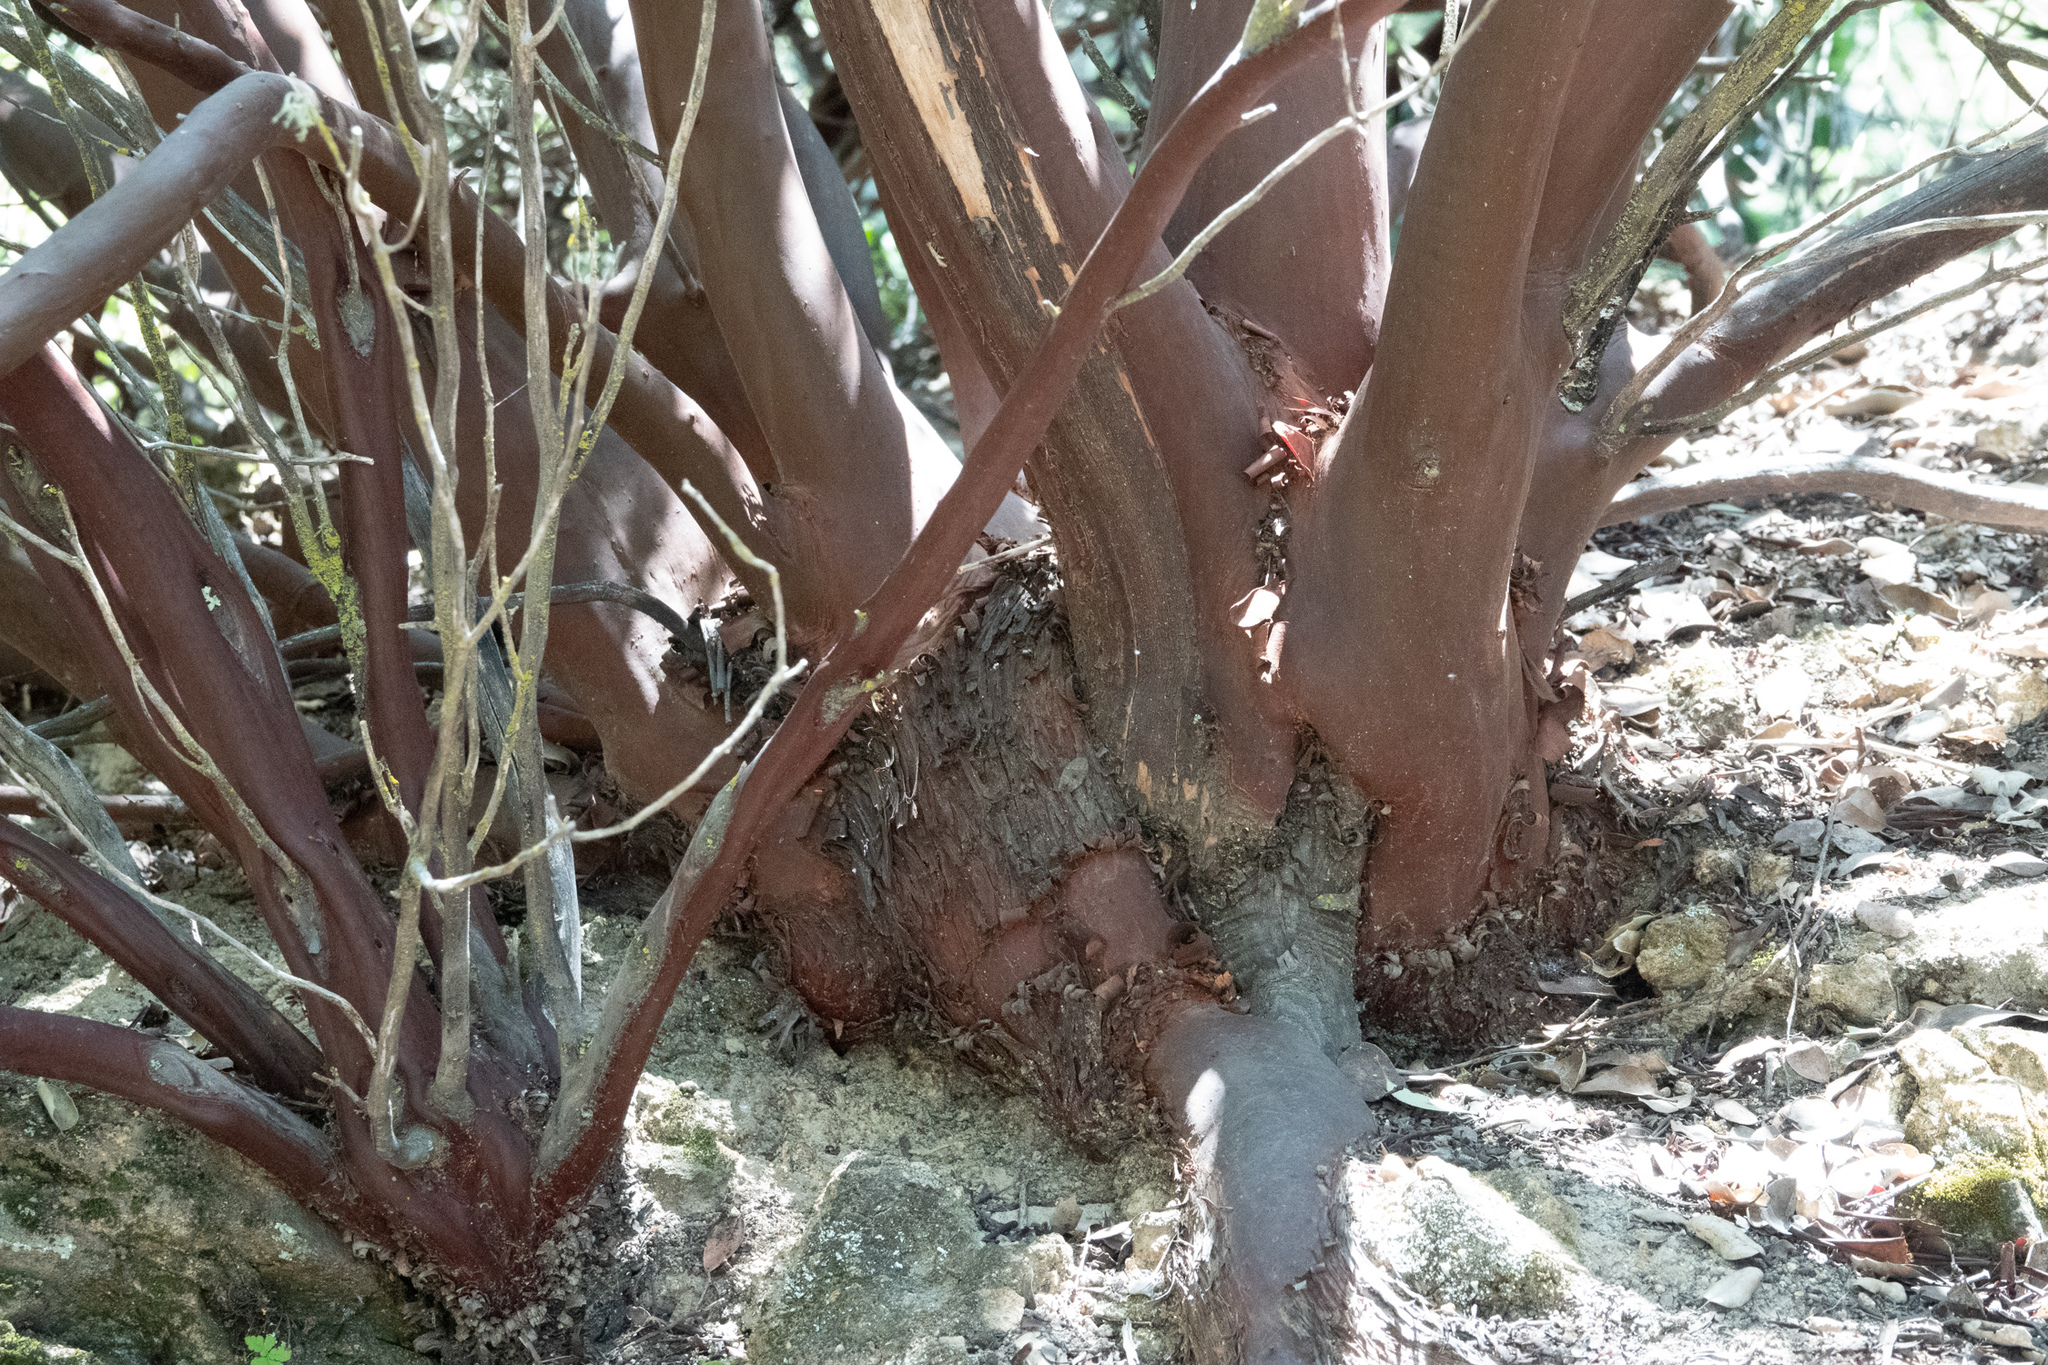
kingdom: Plantae
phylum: Tracheophyta
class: Magnoliopsida
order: Ericales
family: Ericaceae
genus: Arctostaphylos
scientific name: Arctostaphylos glandulosa
